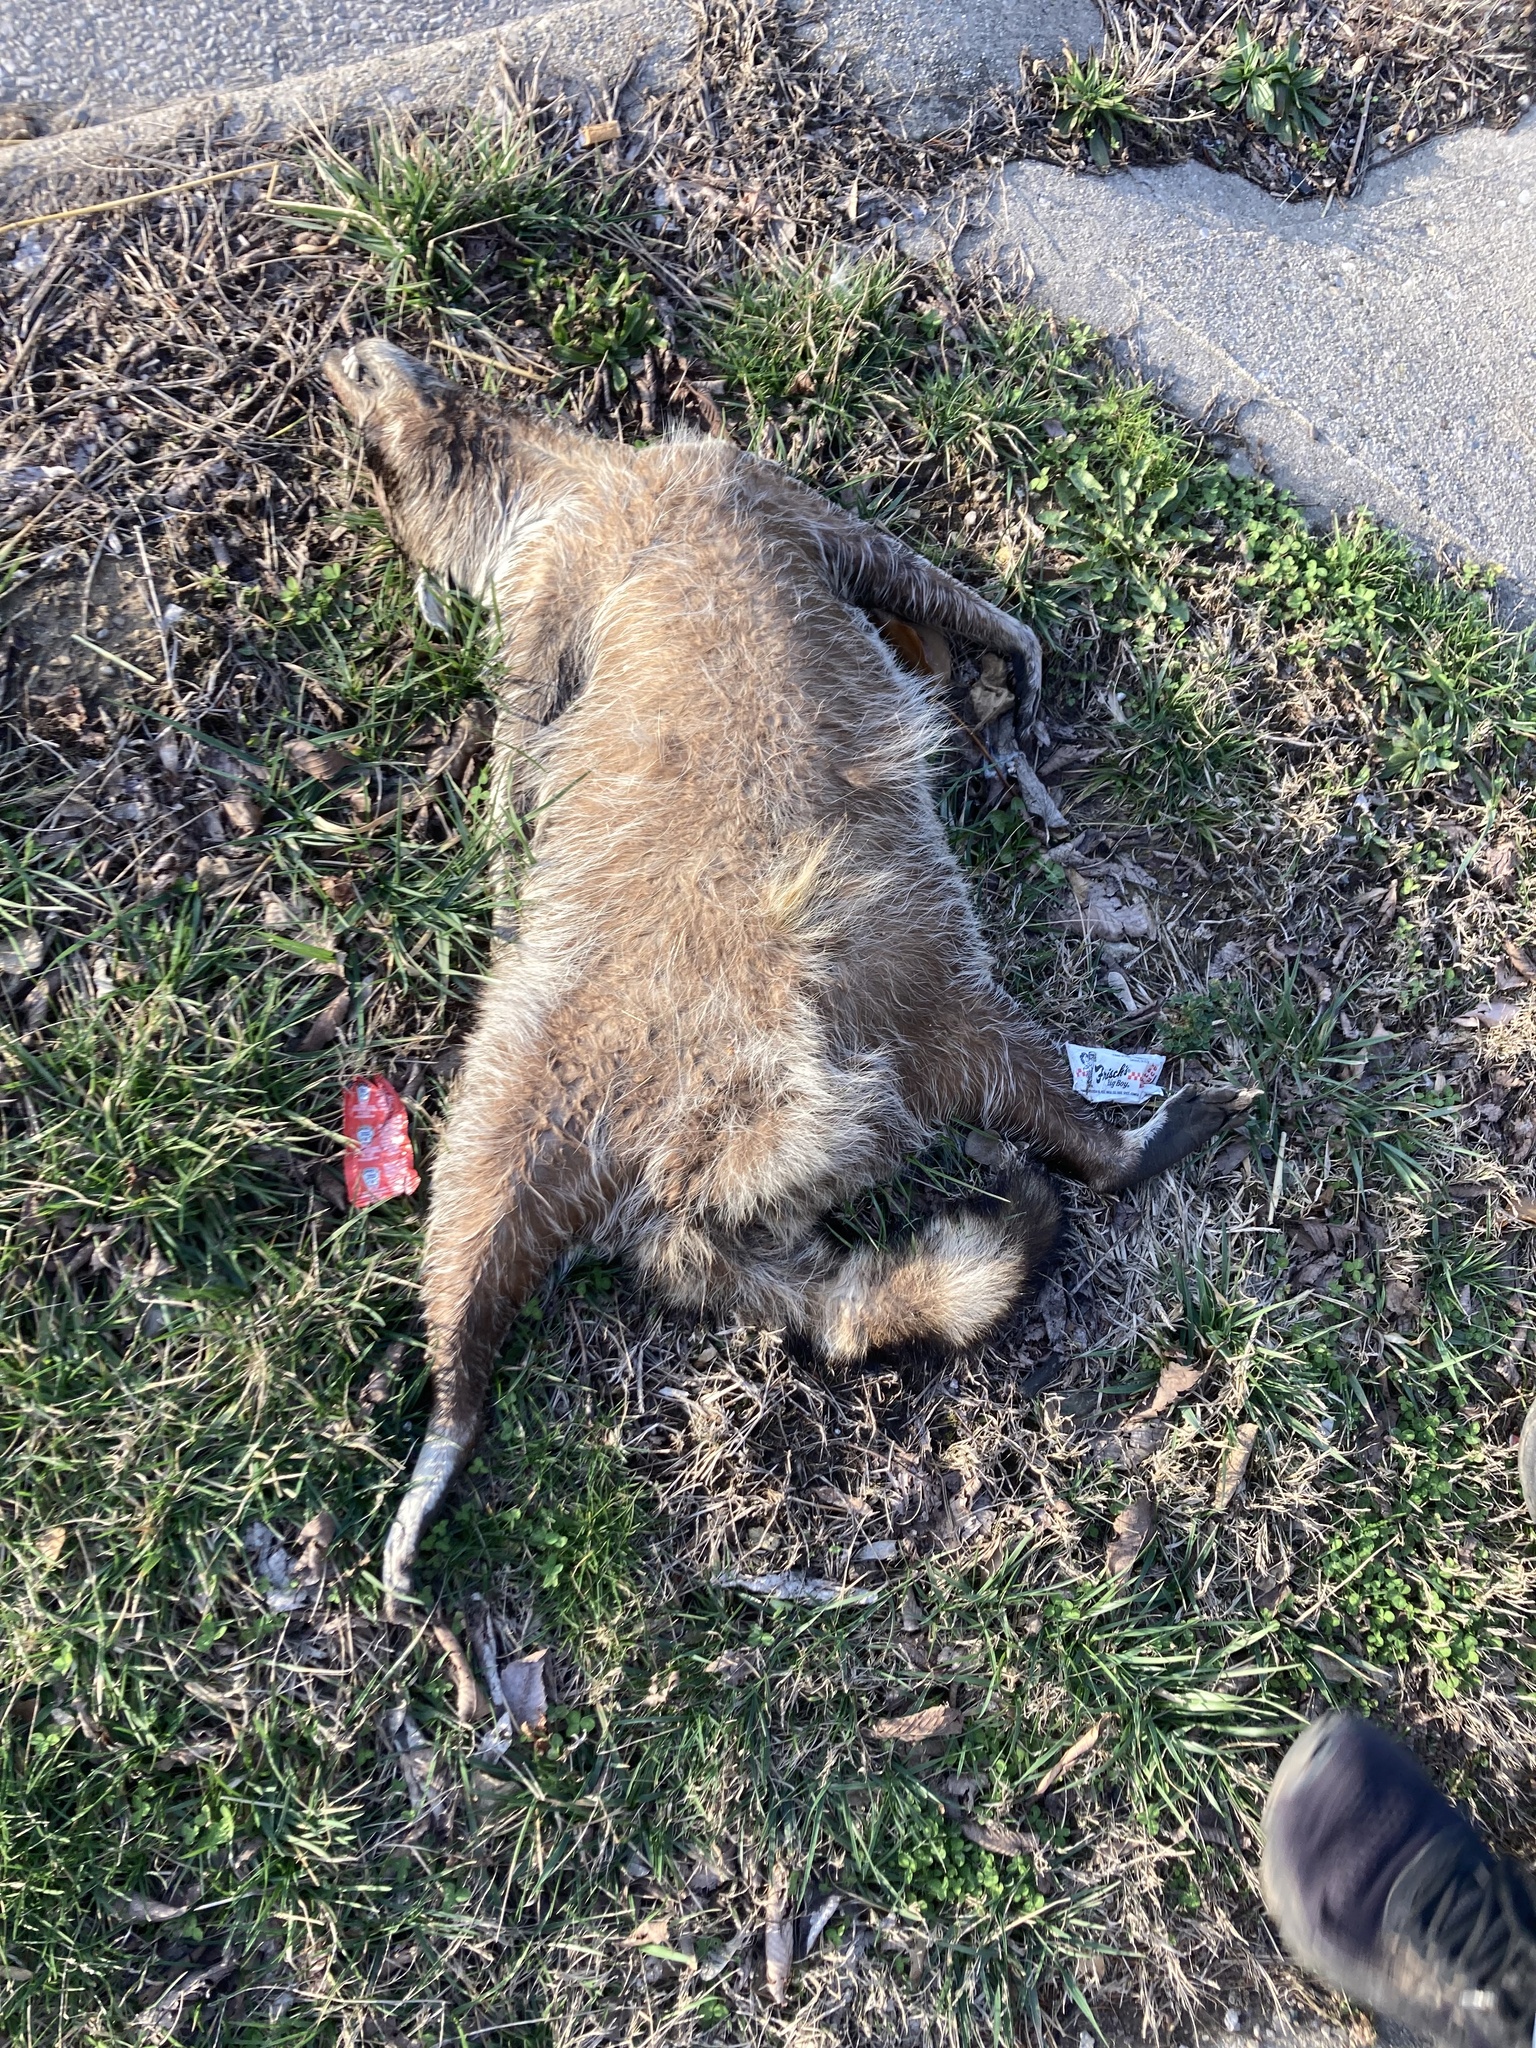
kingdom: Animalia
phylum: Chordata
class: Mammalia
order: Carnivora
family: Procyonidae
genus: Procyon
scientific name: Procyon lotor
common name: Raccoon
